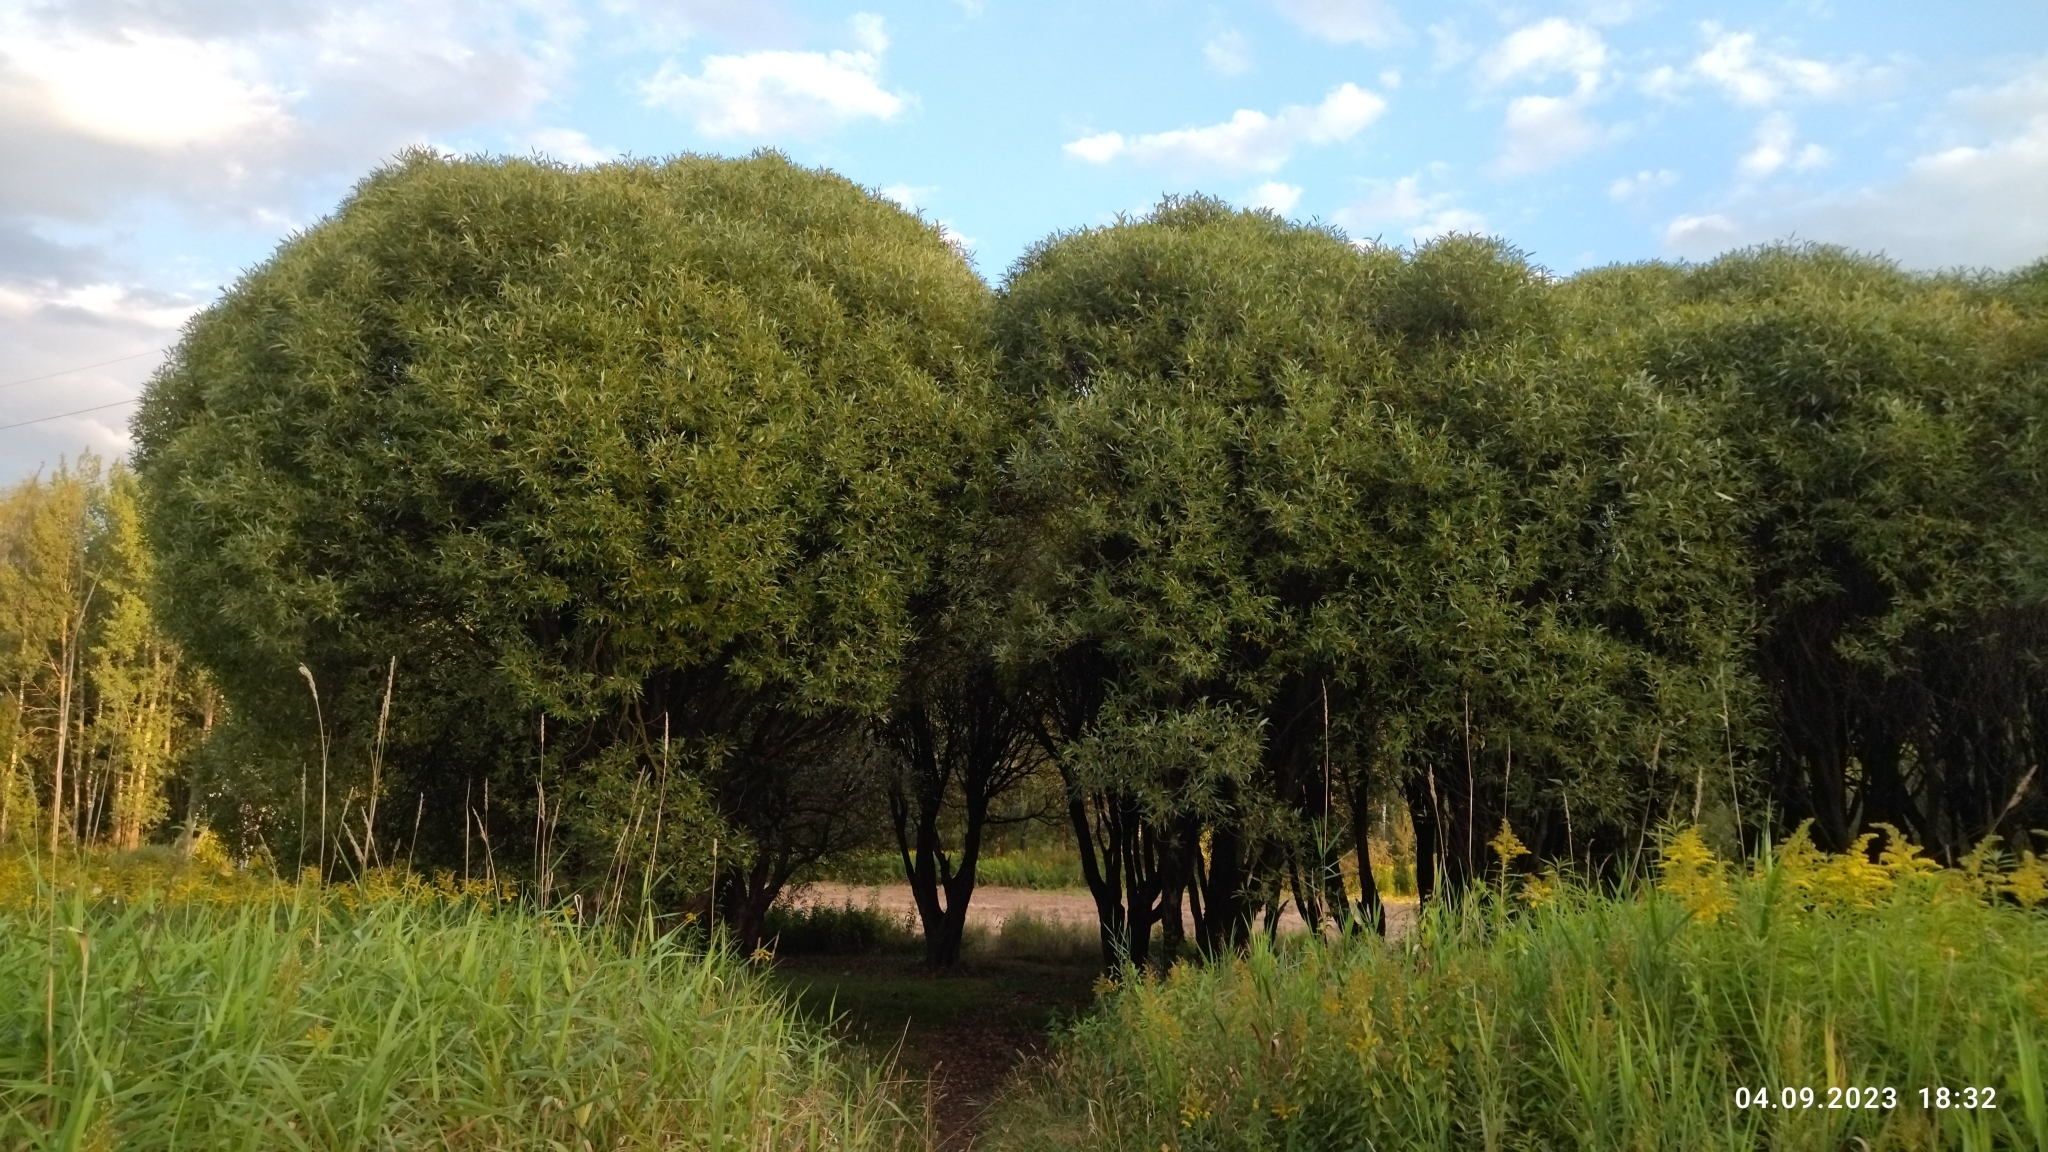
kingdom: Plantae
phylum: Tracheophyta
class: Magnoliopsida
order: Malpighiales
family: Salicaceae
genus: Salix
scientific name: Salix alba
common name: White willow
